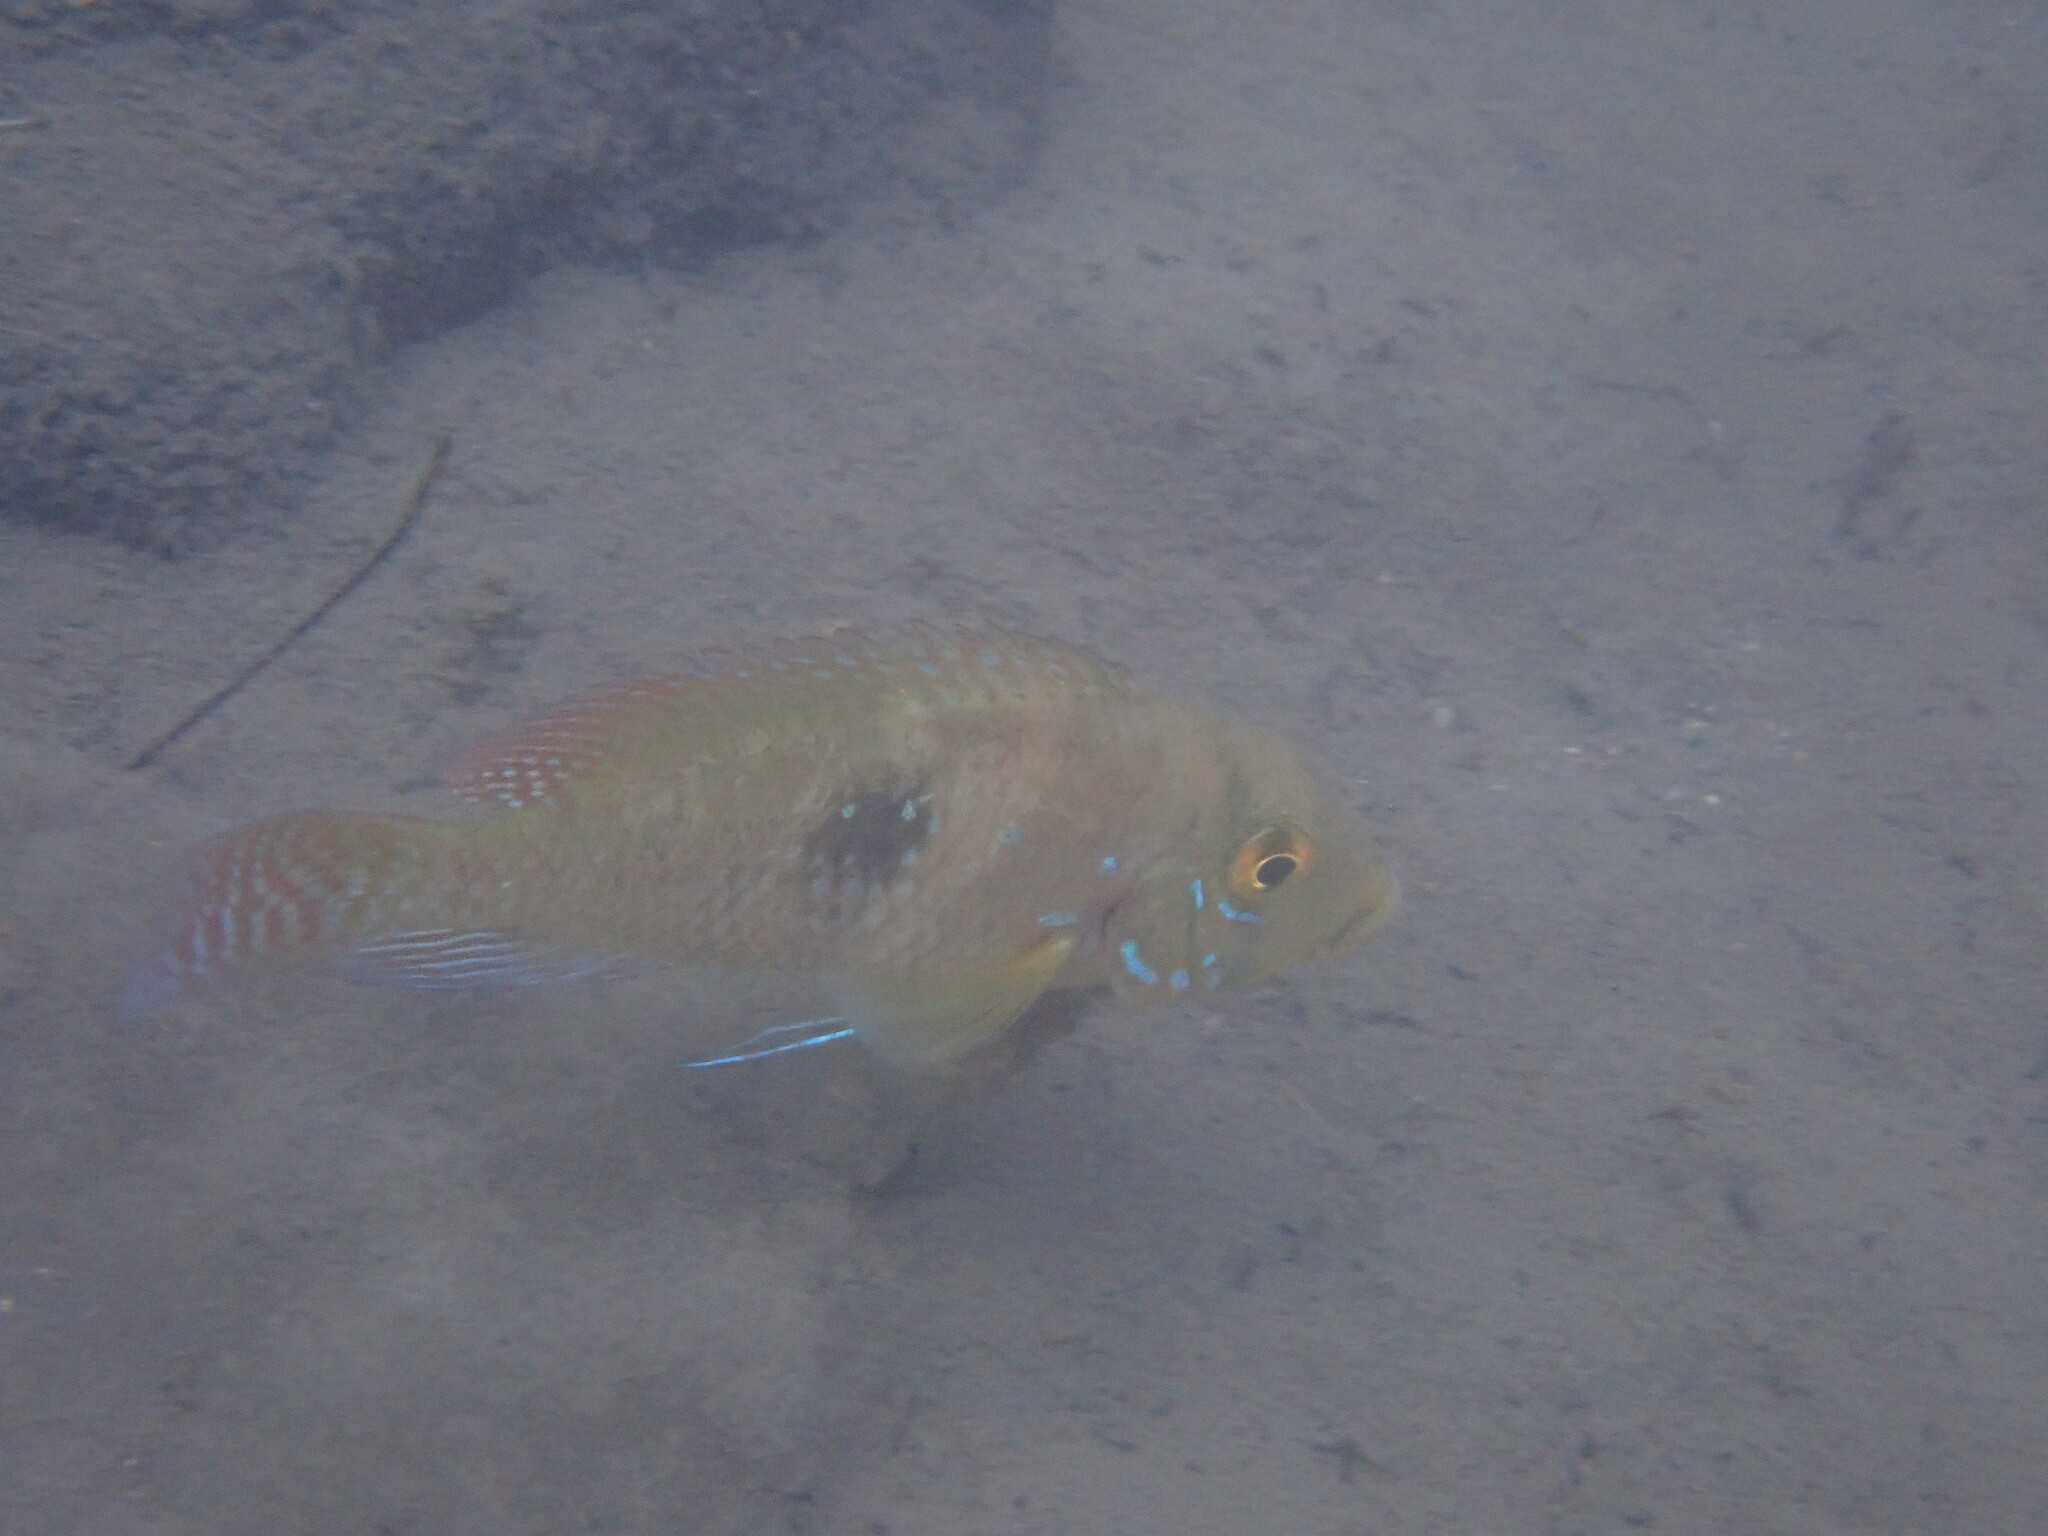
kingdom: Animalia
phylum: Chordata
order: Perciformes
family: Cichlidae
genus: Geophagus
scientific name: Geophagus brasiliensis
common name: Braziliensis
